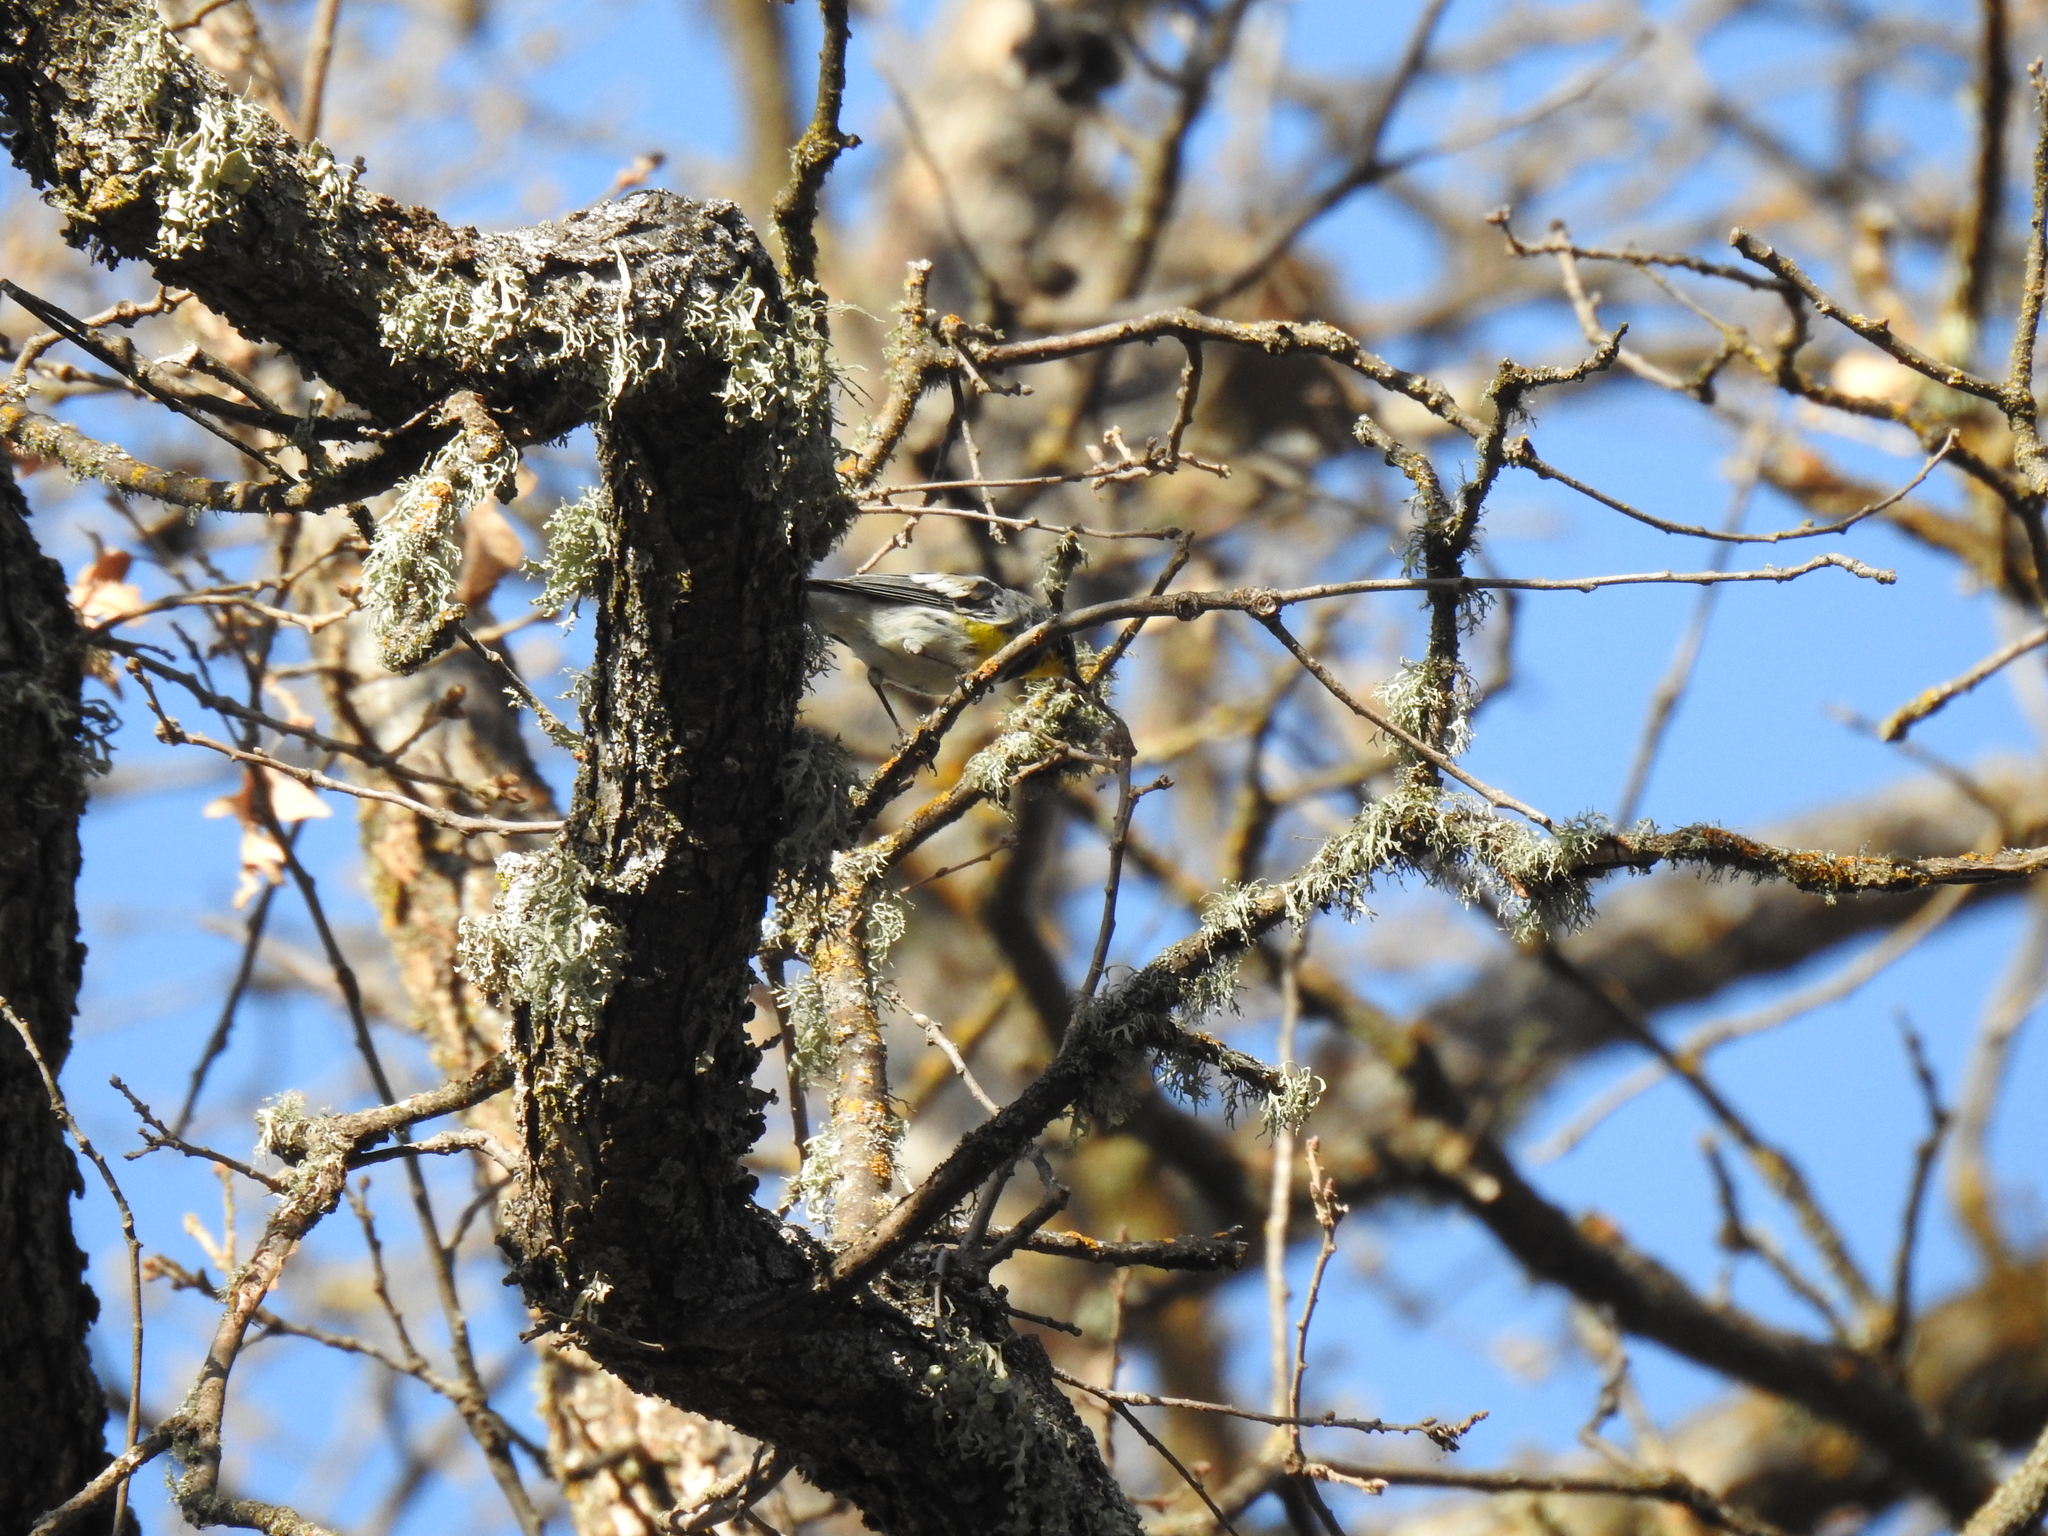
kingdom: Animalia
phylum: Chordata
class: Aves
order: Passeriformes
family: Parulidae
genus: Setophaga
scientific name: Setophaga coronata
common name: Myrtle warbler
